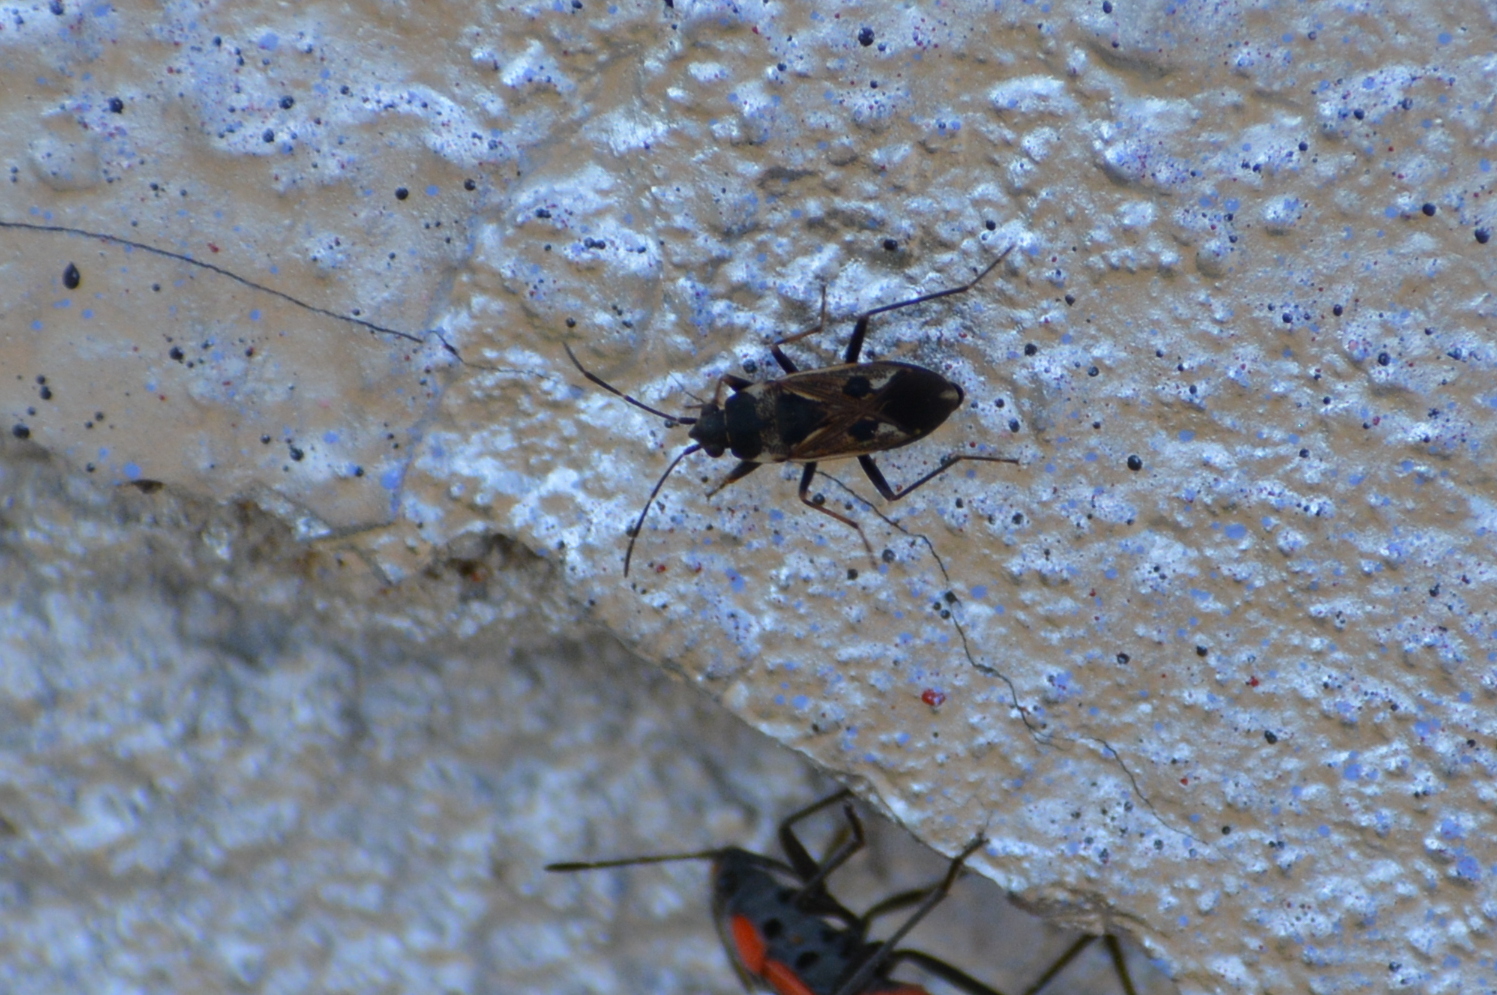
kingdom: Animalia
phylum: Arthropoda
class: Insecta
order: Hemiptera
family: Rhyparochromidae
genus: Rhyparochromus
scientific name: Rhyparochromus vulgaris
